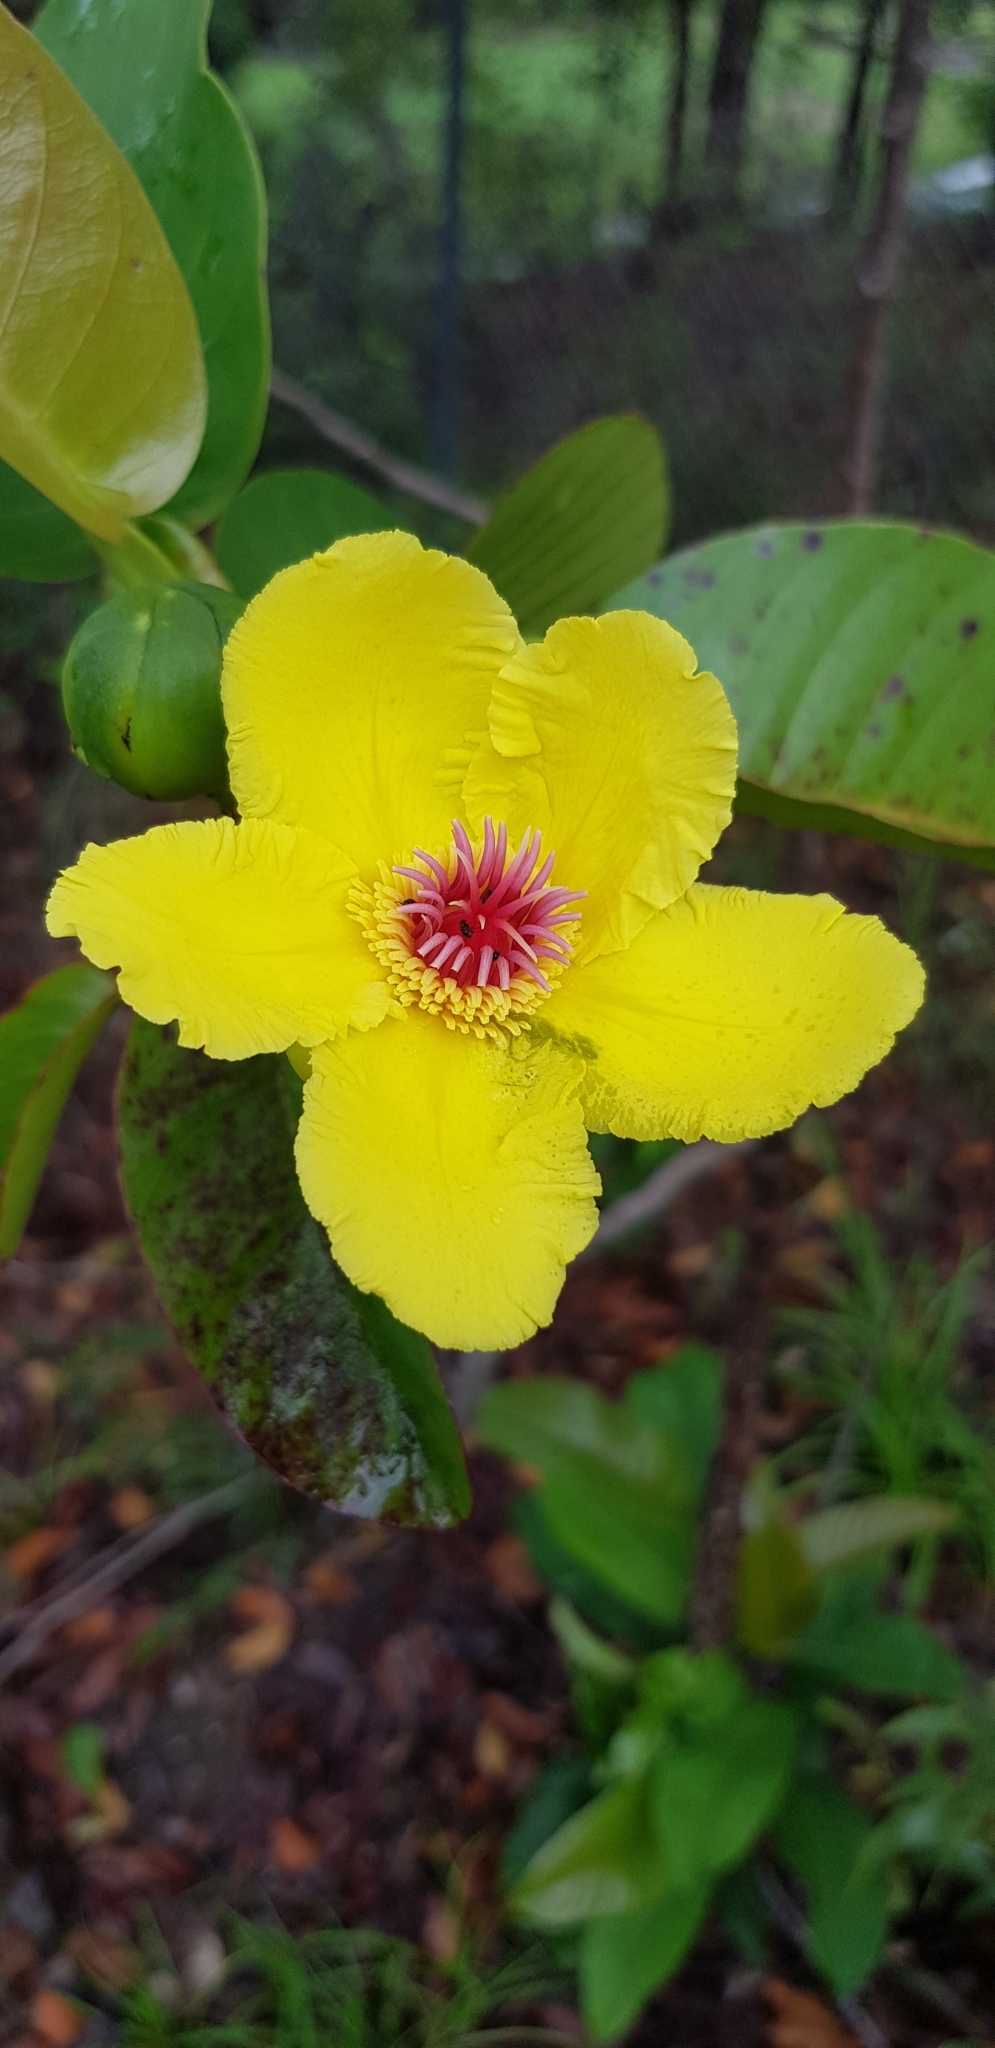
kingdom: Plantae
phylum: Tracheophyta
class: Magnoliopsida
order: Dilleniales
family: Dilleniaceae
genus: Dillenia
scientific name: Dillenia alata
